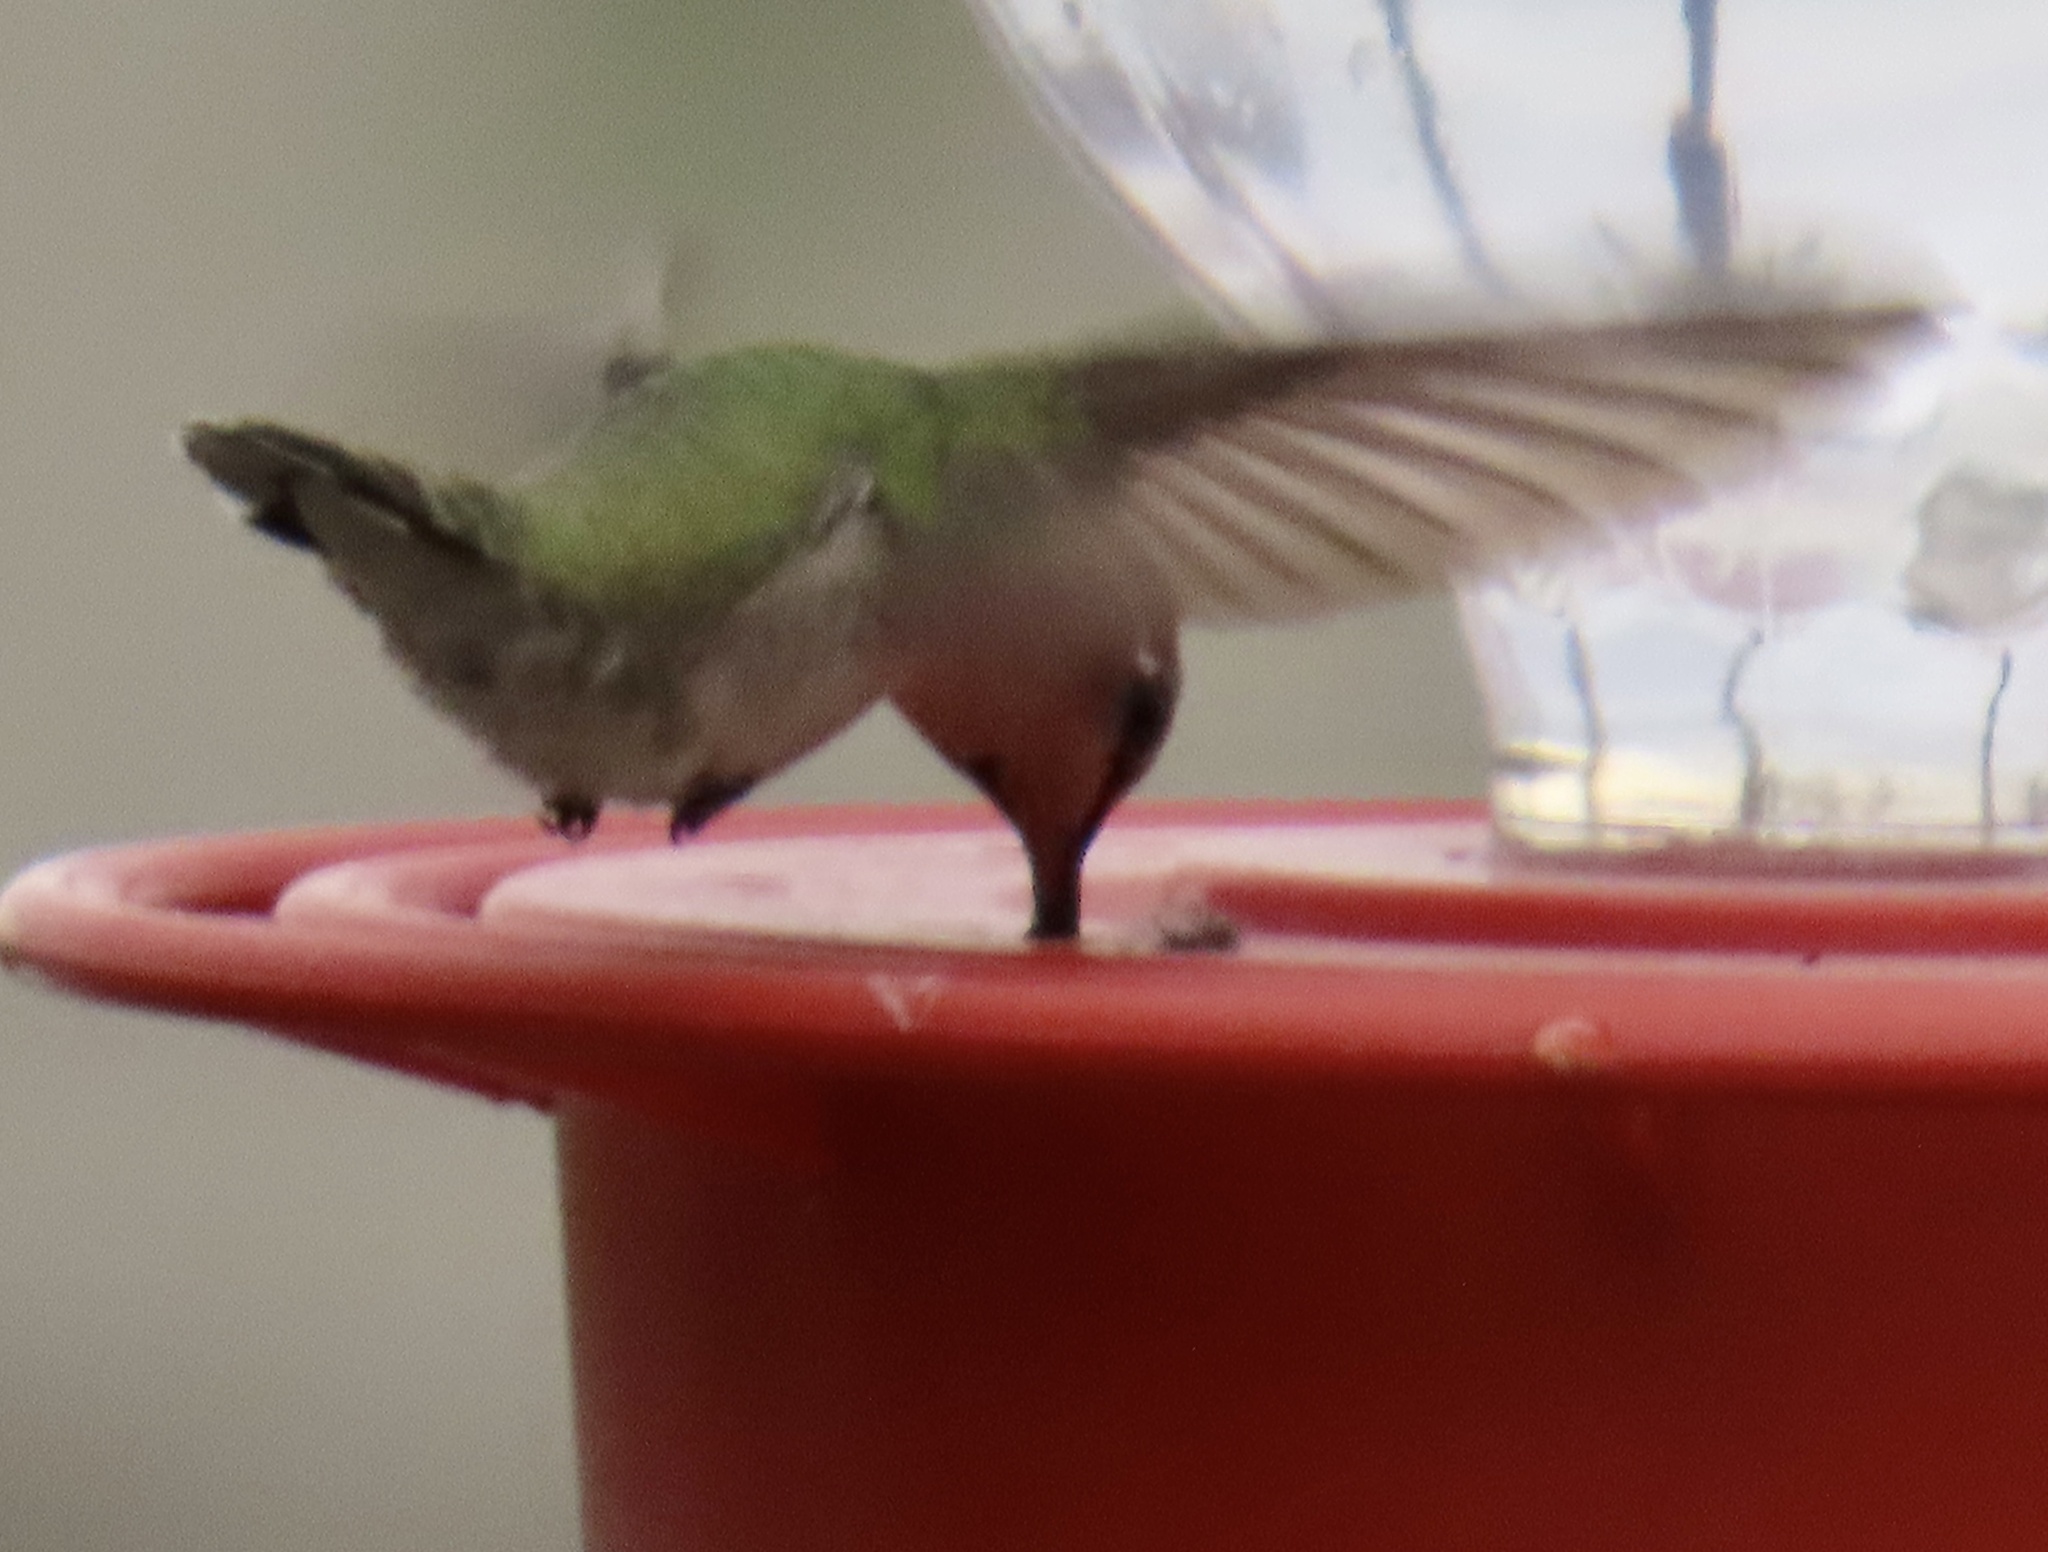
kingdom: Animalia
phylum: Chordata
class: Aves
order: Apodiformes
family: Trochilidae
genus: Calypte
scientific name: Calypte costae
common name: Costa's hummingbird
